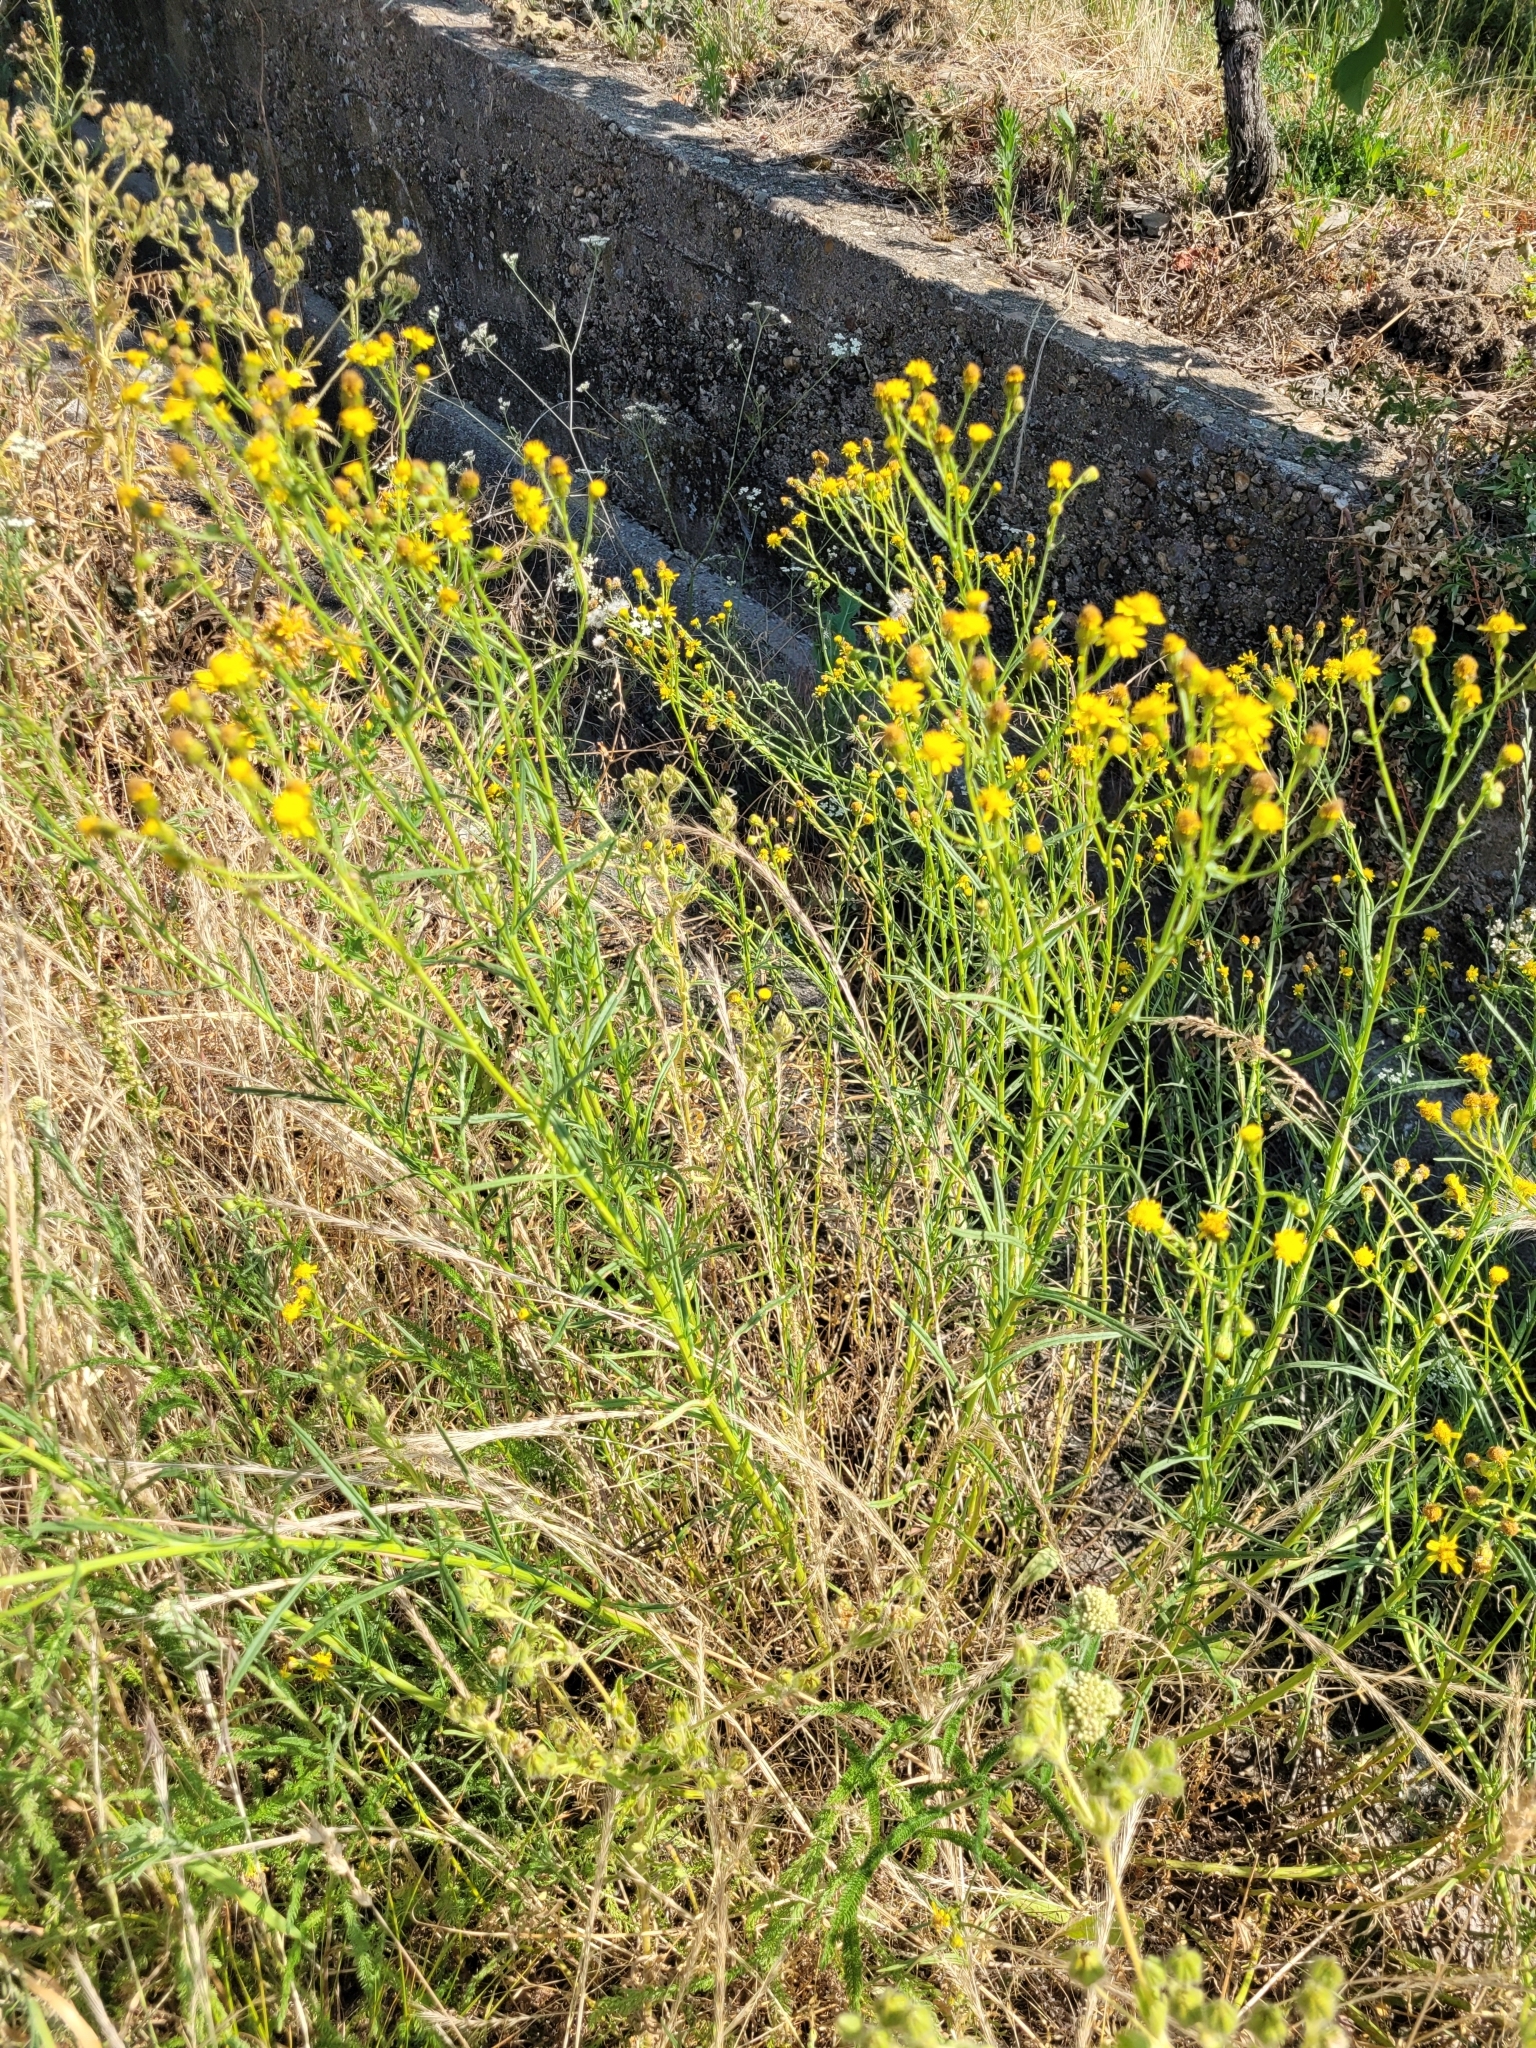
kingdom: Plantae
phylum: Tracheophyta
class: Magnoliopsida
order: Asterales
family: Asteraceae
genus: Senecio
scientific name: Senecio inaequidens
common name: Narrow-leaved ragwort
